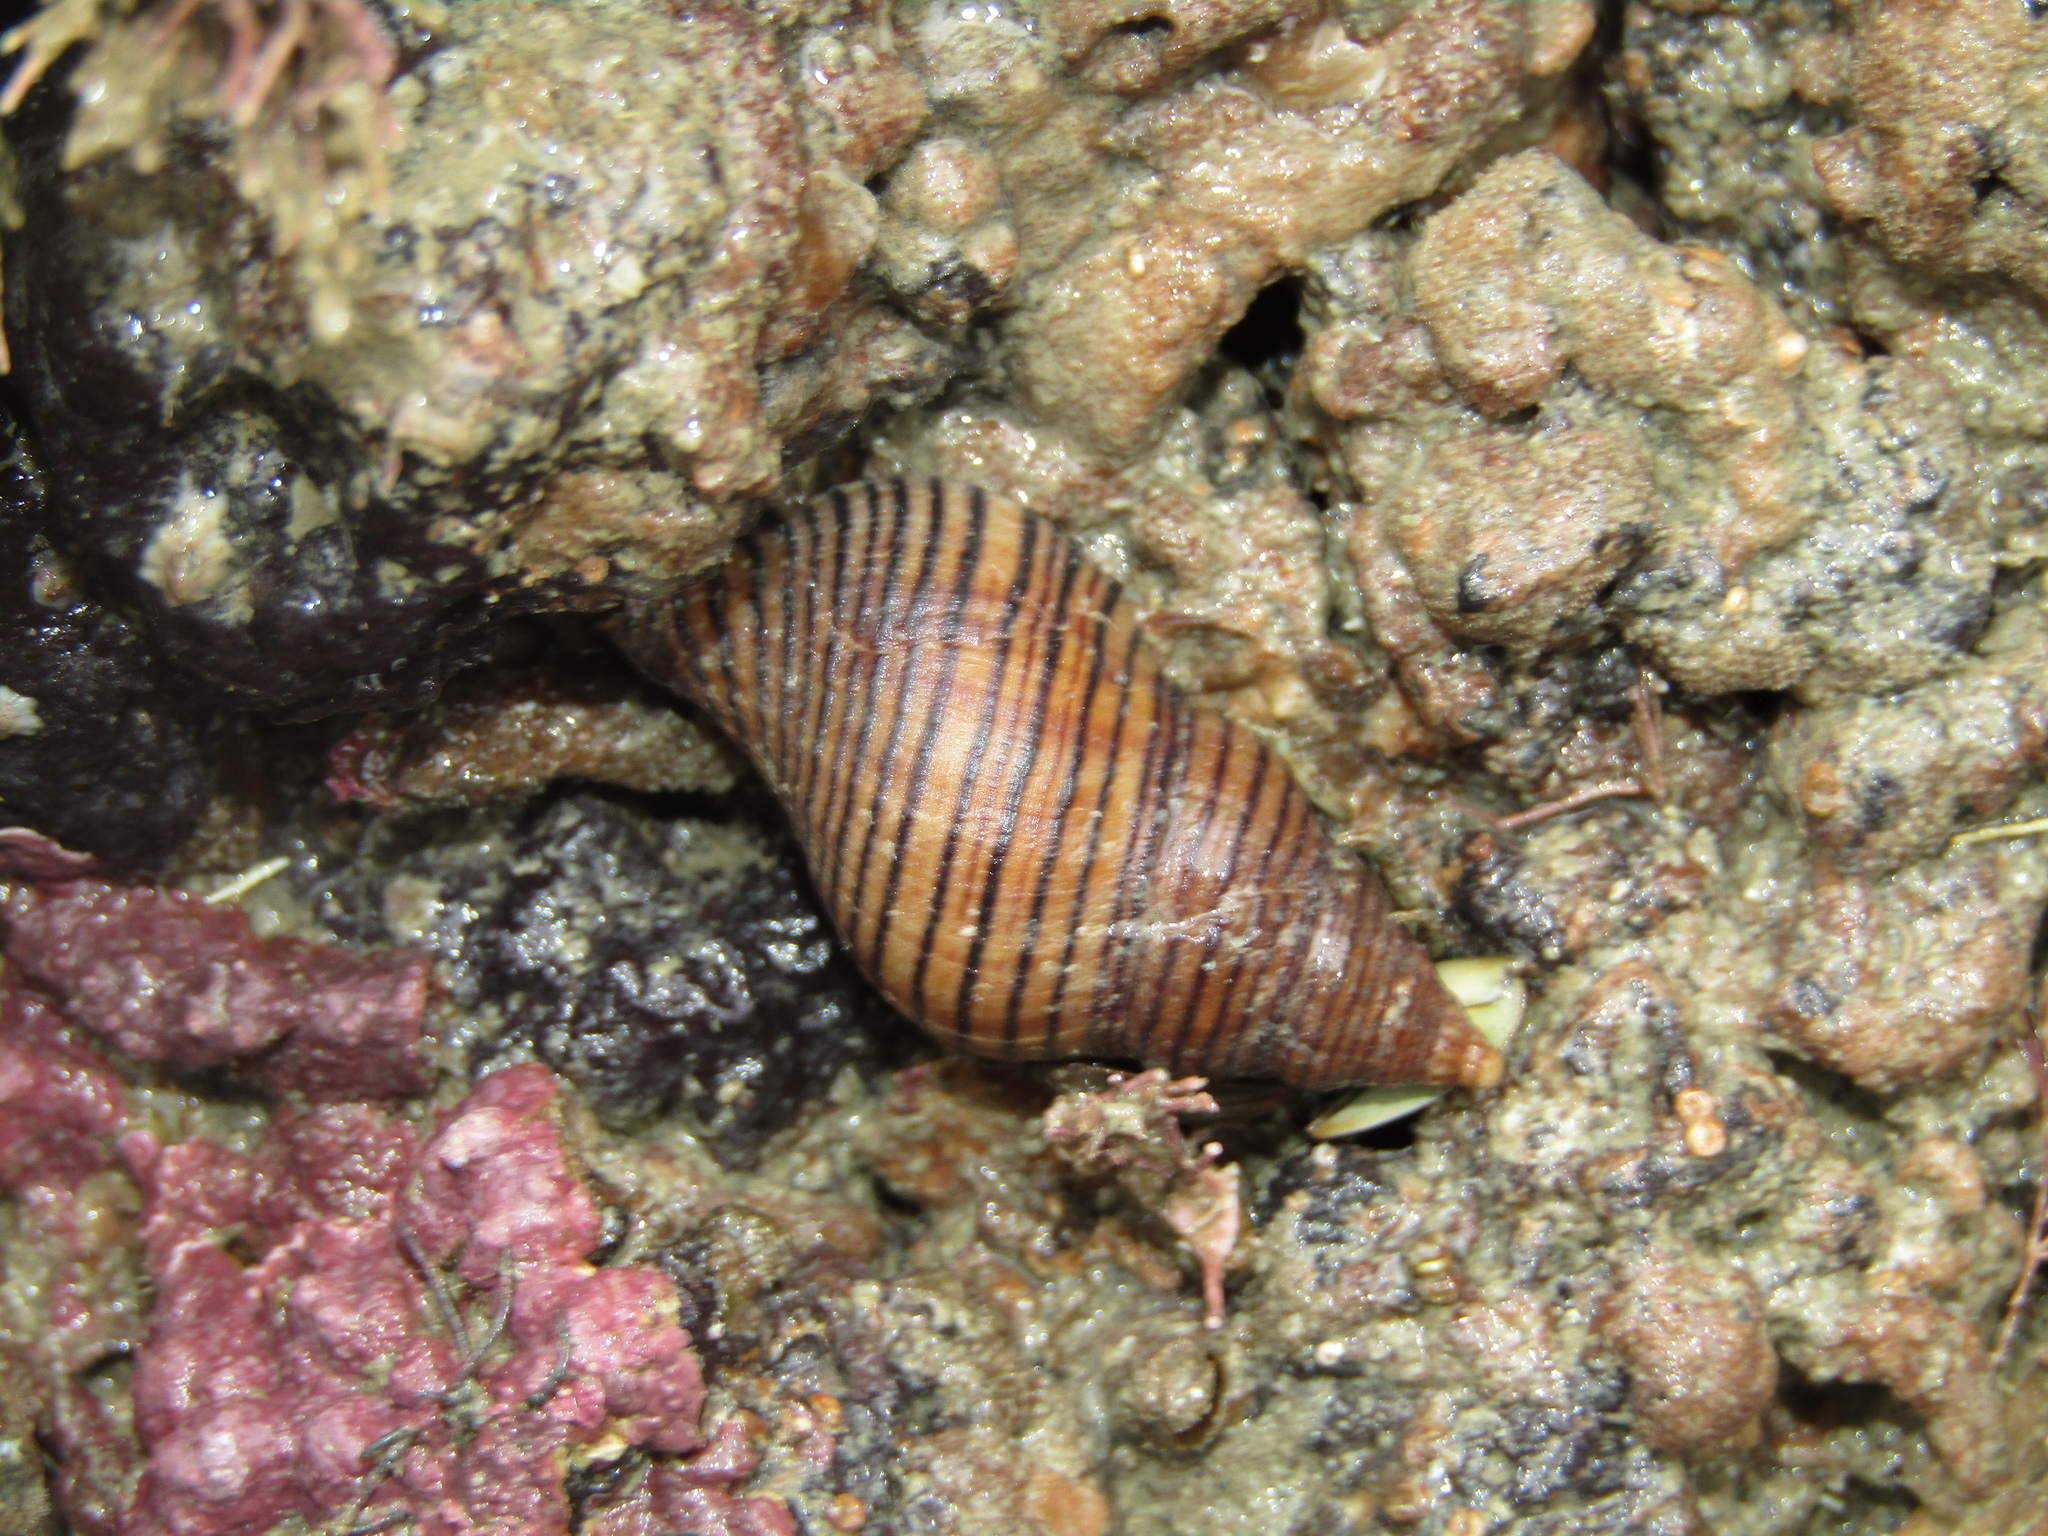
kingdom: Animalia
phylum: Mollusca
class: Gastropoda
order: Neogastropoda
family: Tudiclidae
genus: Buccinulum
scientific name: Buccinulum linea
